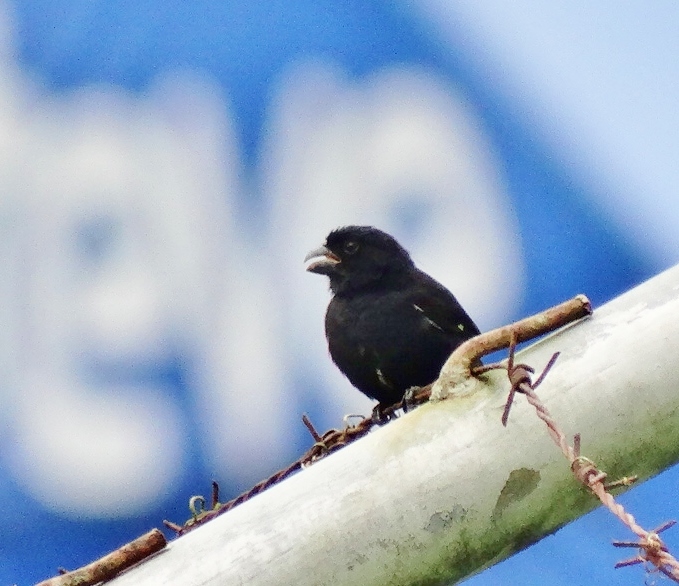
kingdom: Animalia
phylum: Chordata
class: Aves
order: Passeriformes
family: Thraupidae
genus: Sporophila
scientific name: Sporophila corvina
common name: Variable seedeater
